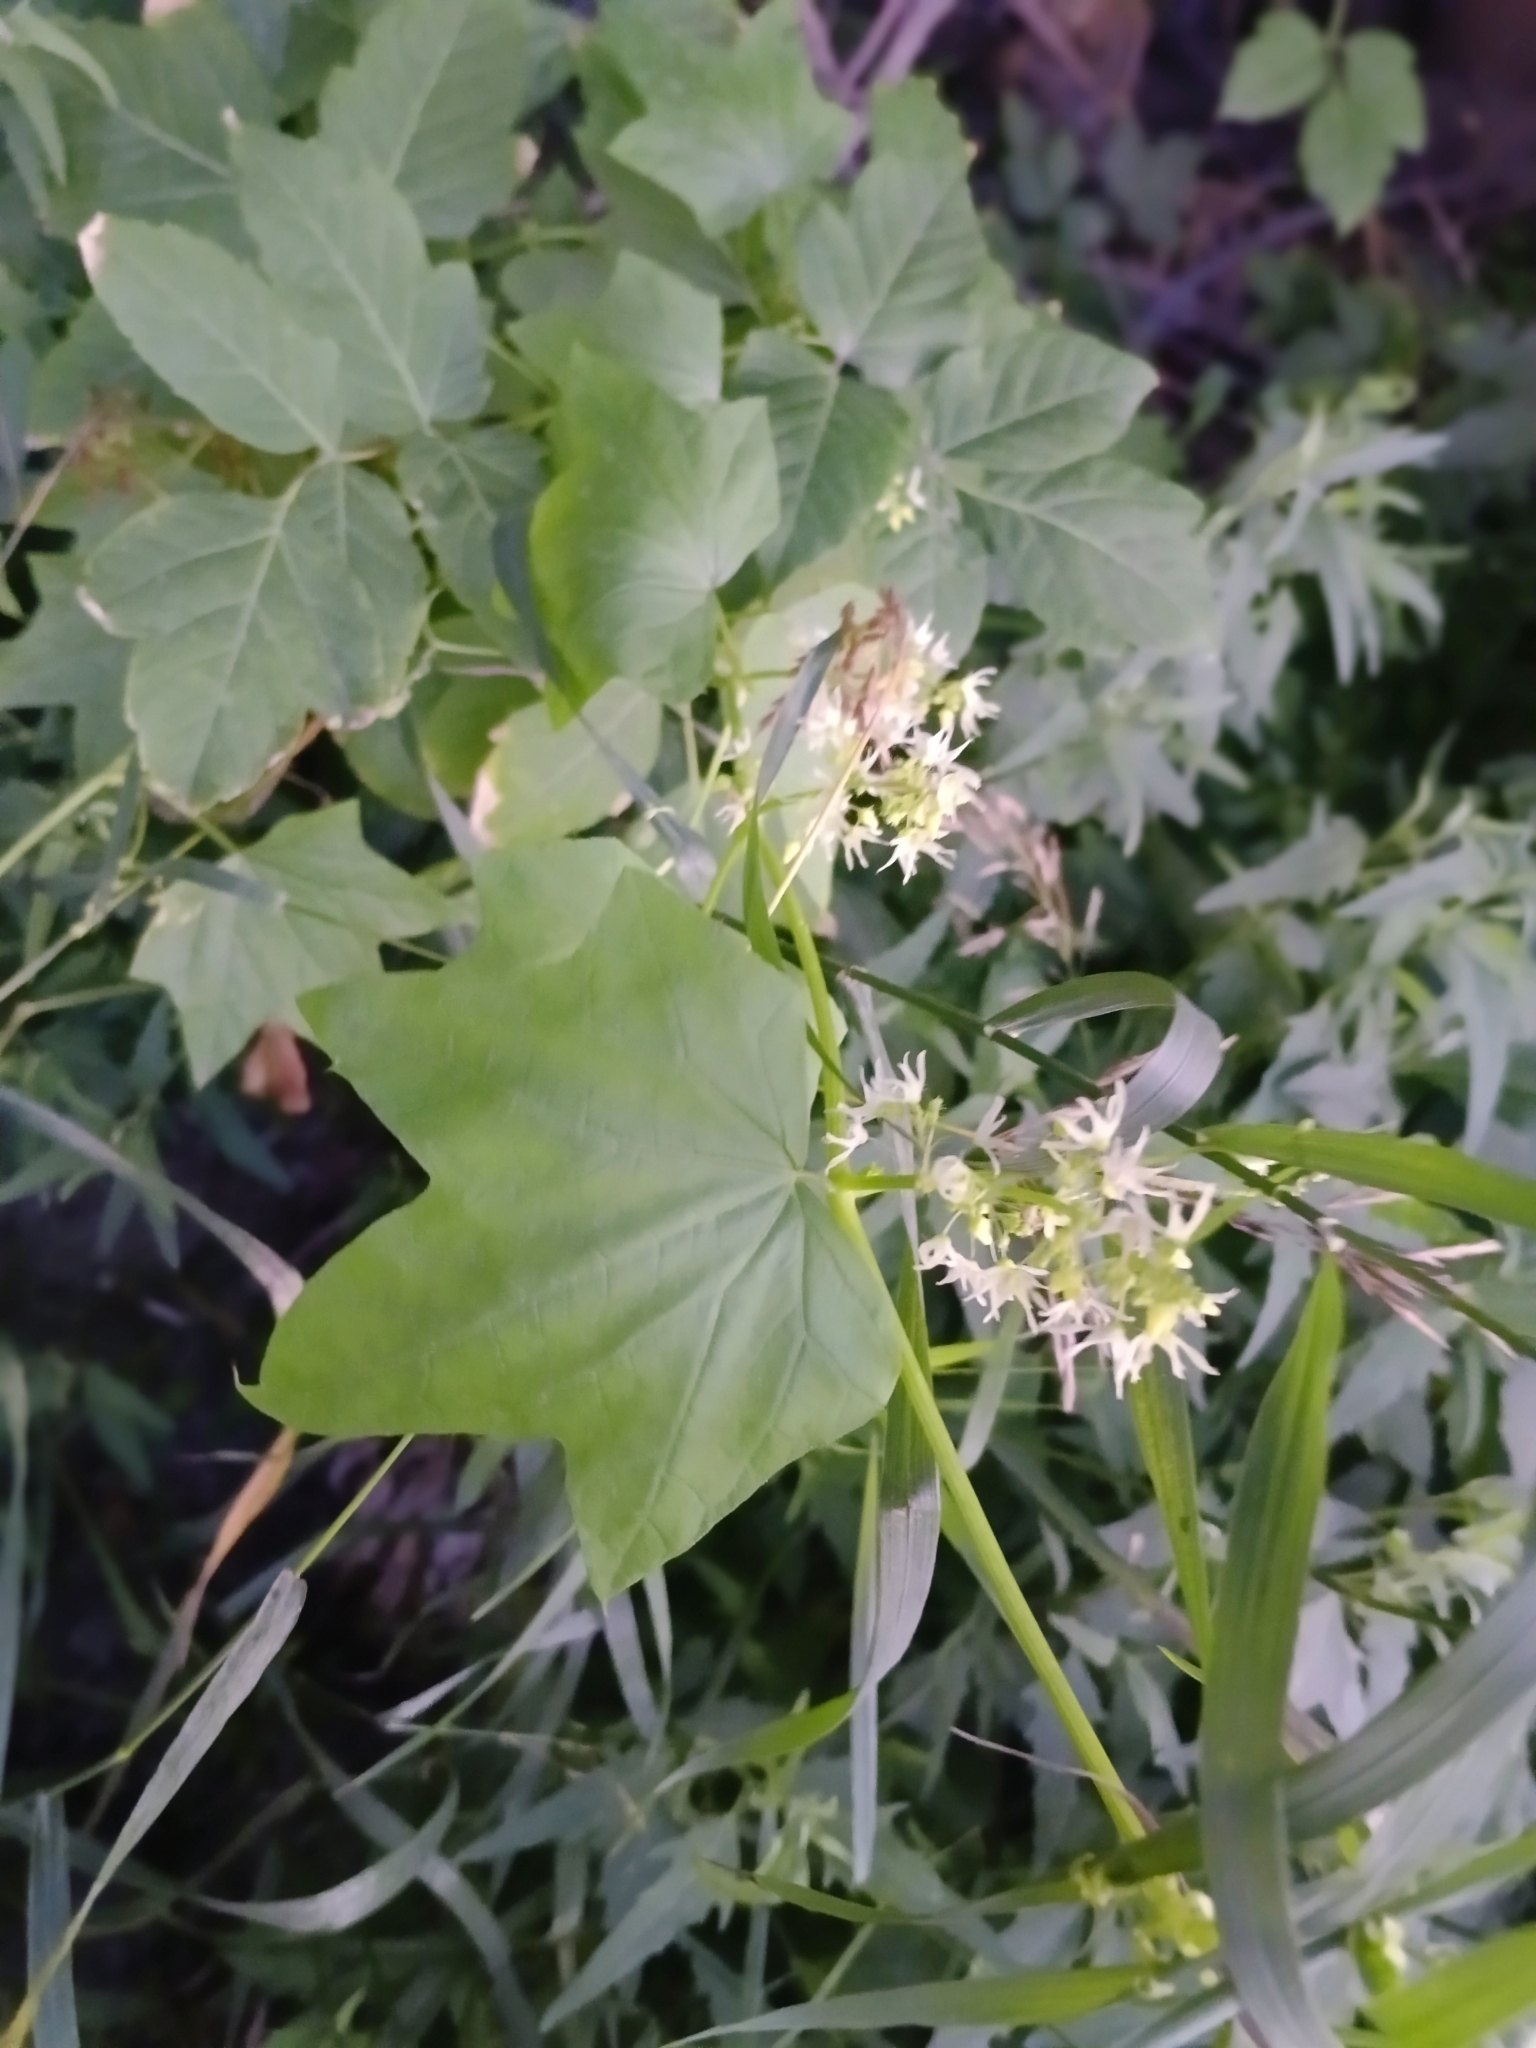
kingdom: Plantae
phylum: Tracheophyta
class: Magnoliopsida
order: Cucurbitales
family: Cucurbitaceae
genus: Echinocystis
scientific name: Echinocystis lobata
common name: Wild cucumber
